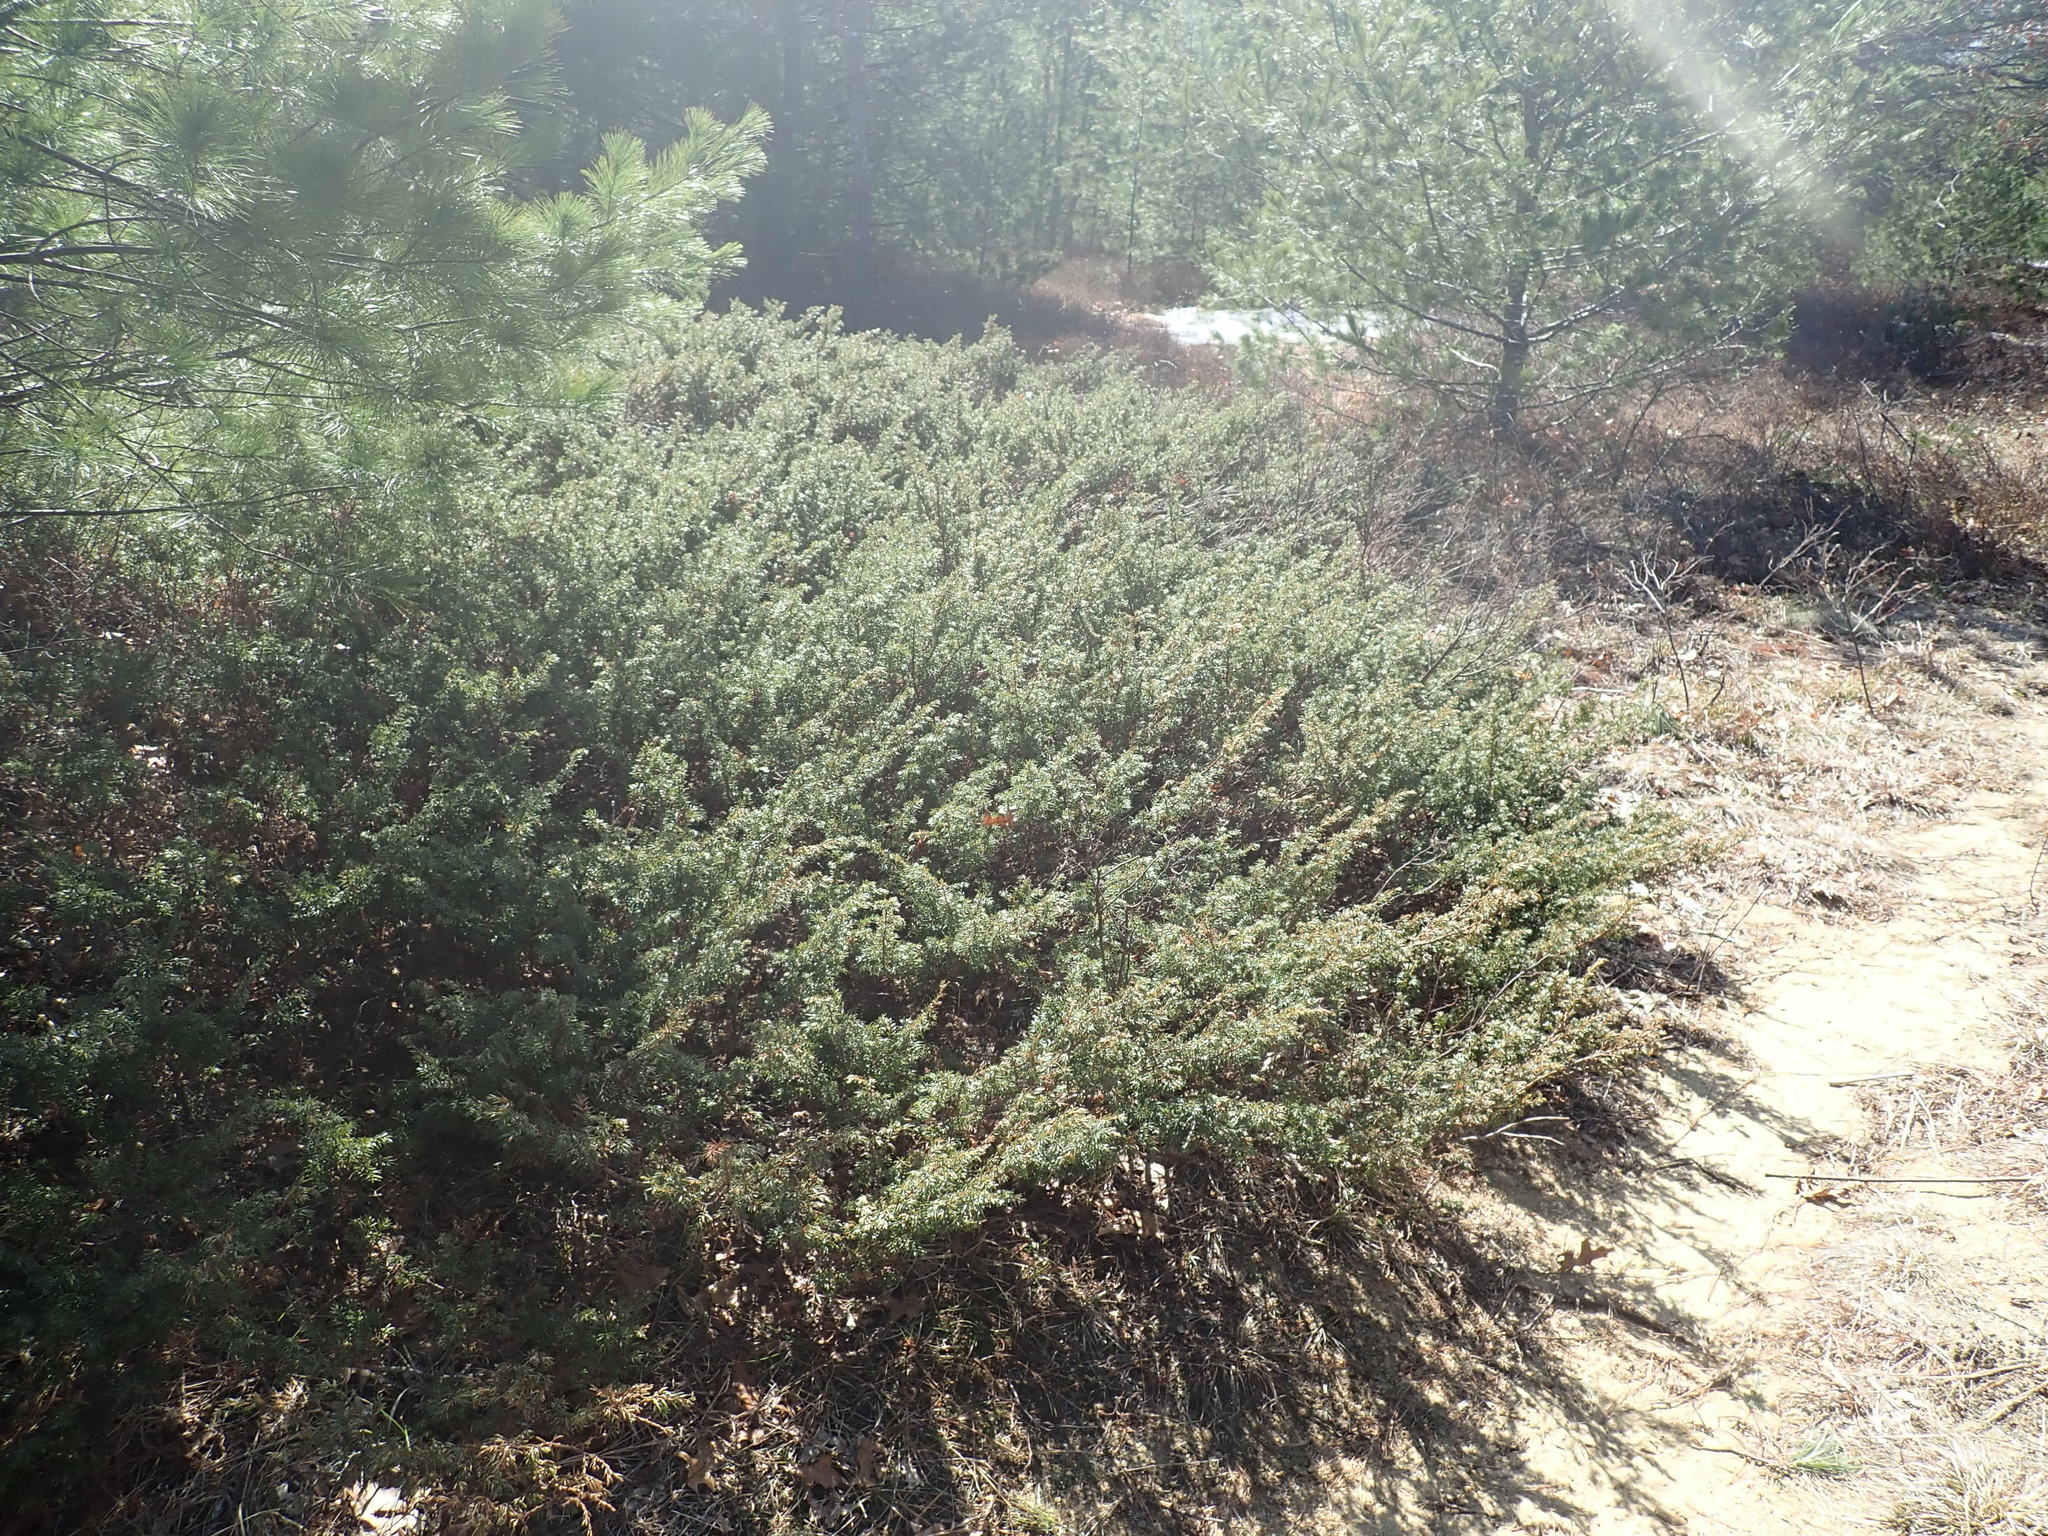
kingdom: Plantae
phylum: Tracheophyta
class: Pinopsida
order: Pinales
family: Cupressaceae
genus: Juniperus
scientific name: Juniperus communis
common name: Common juniper
